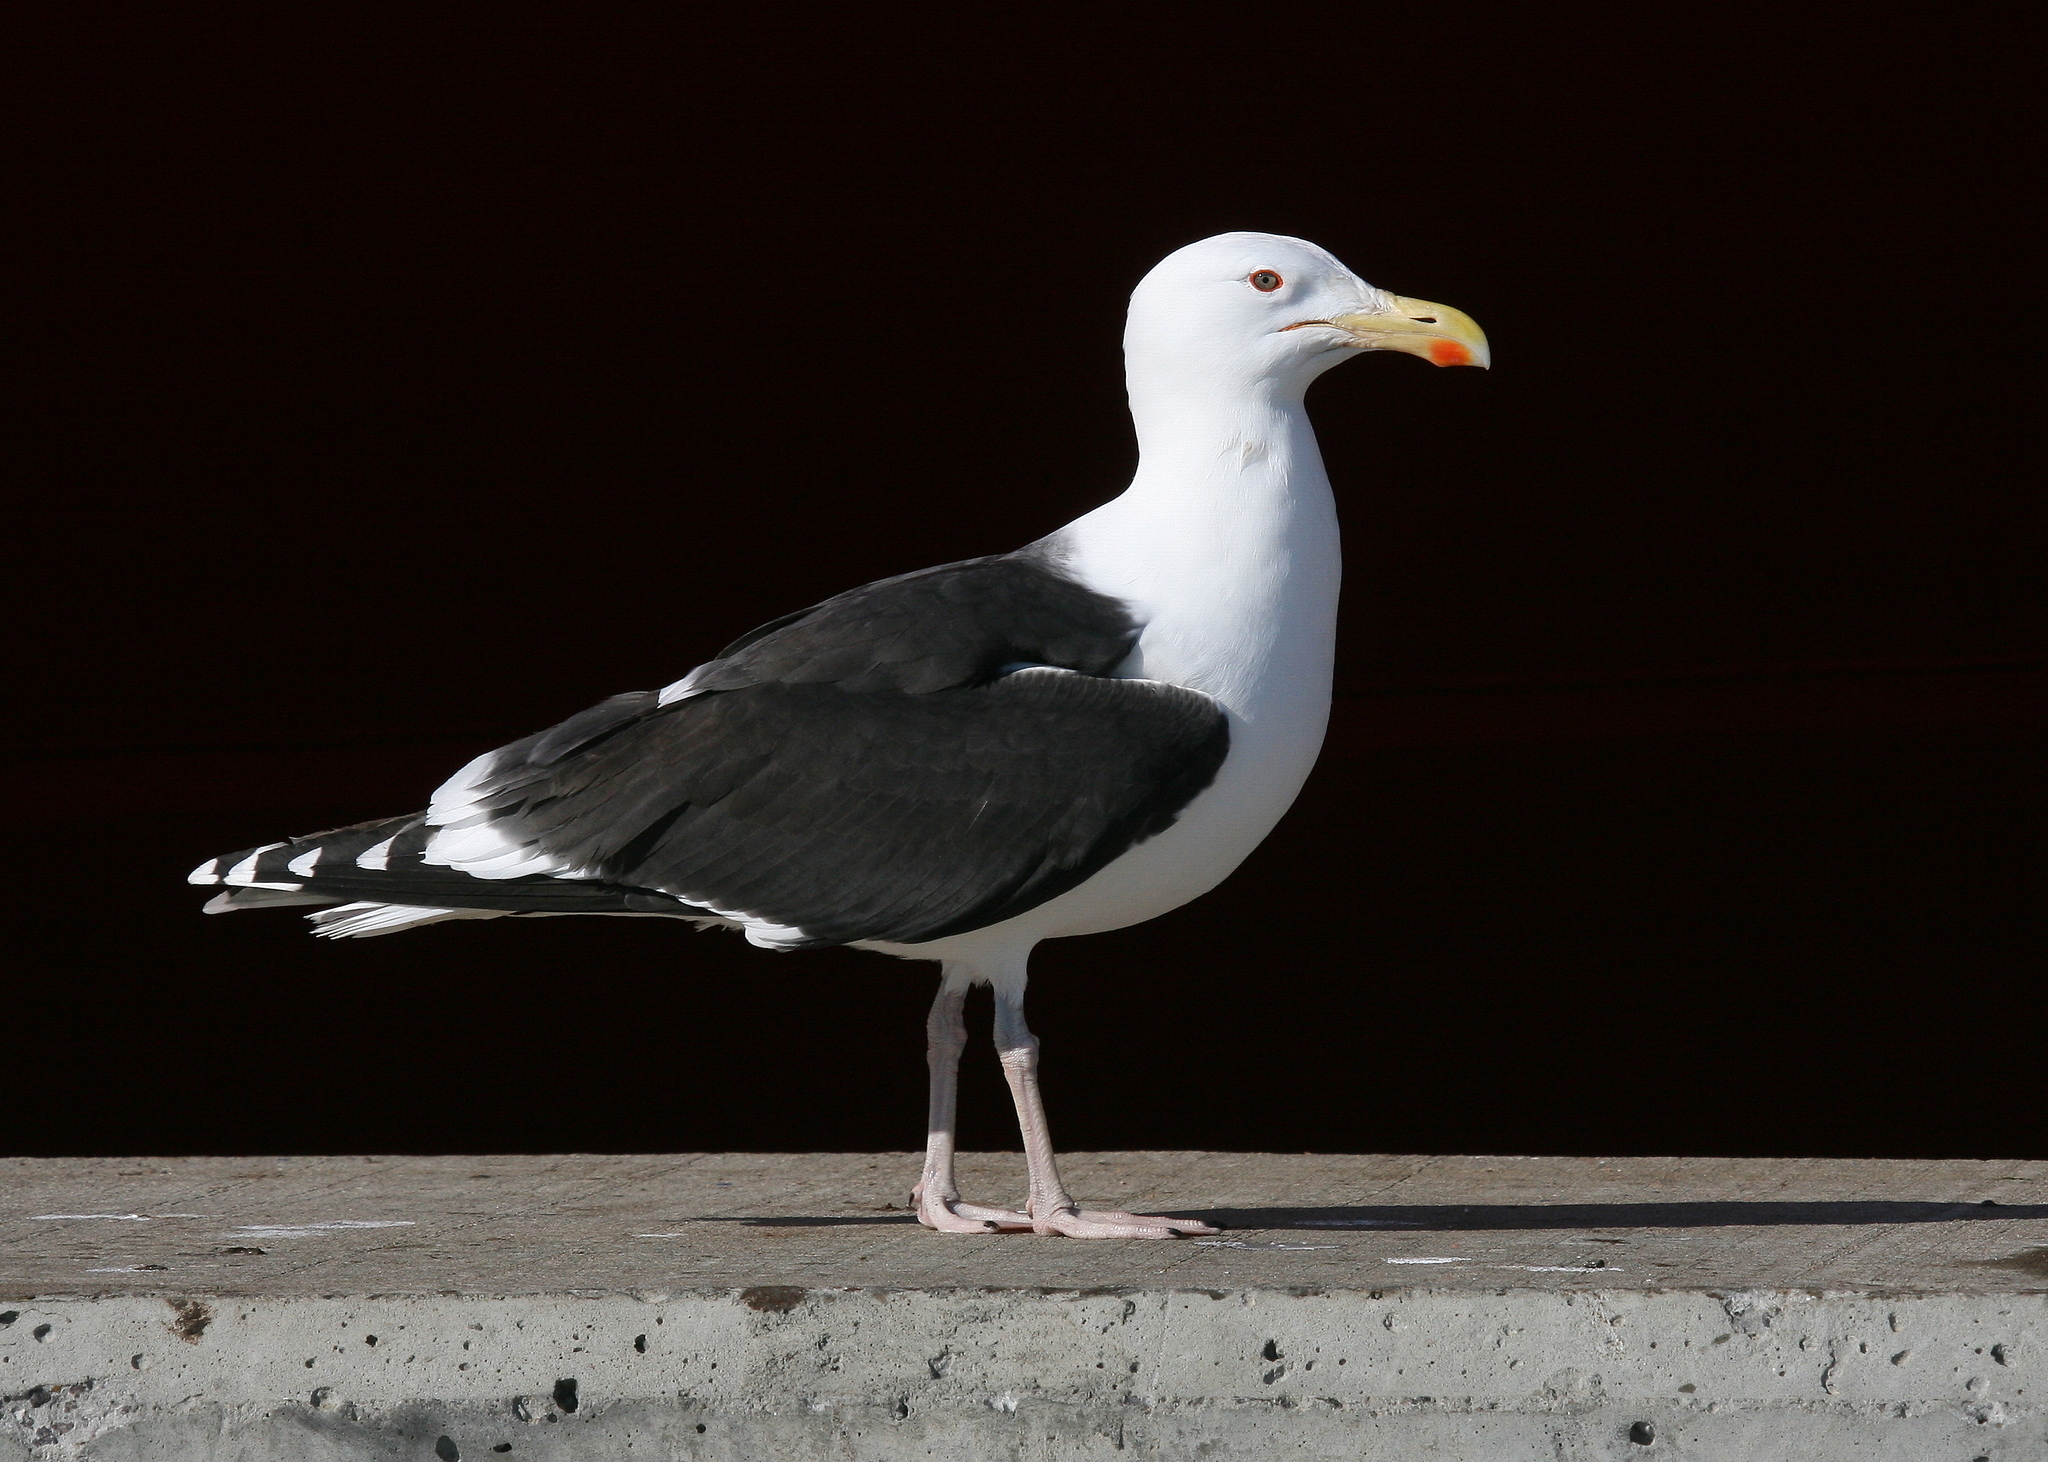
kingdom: Animalia
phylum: Chordata
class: Aves
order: Charadriiformes
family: Laridae
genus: Larus
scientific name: Larus marinus
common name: Great black-backed gull
